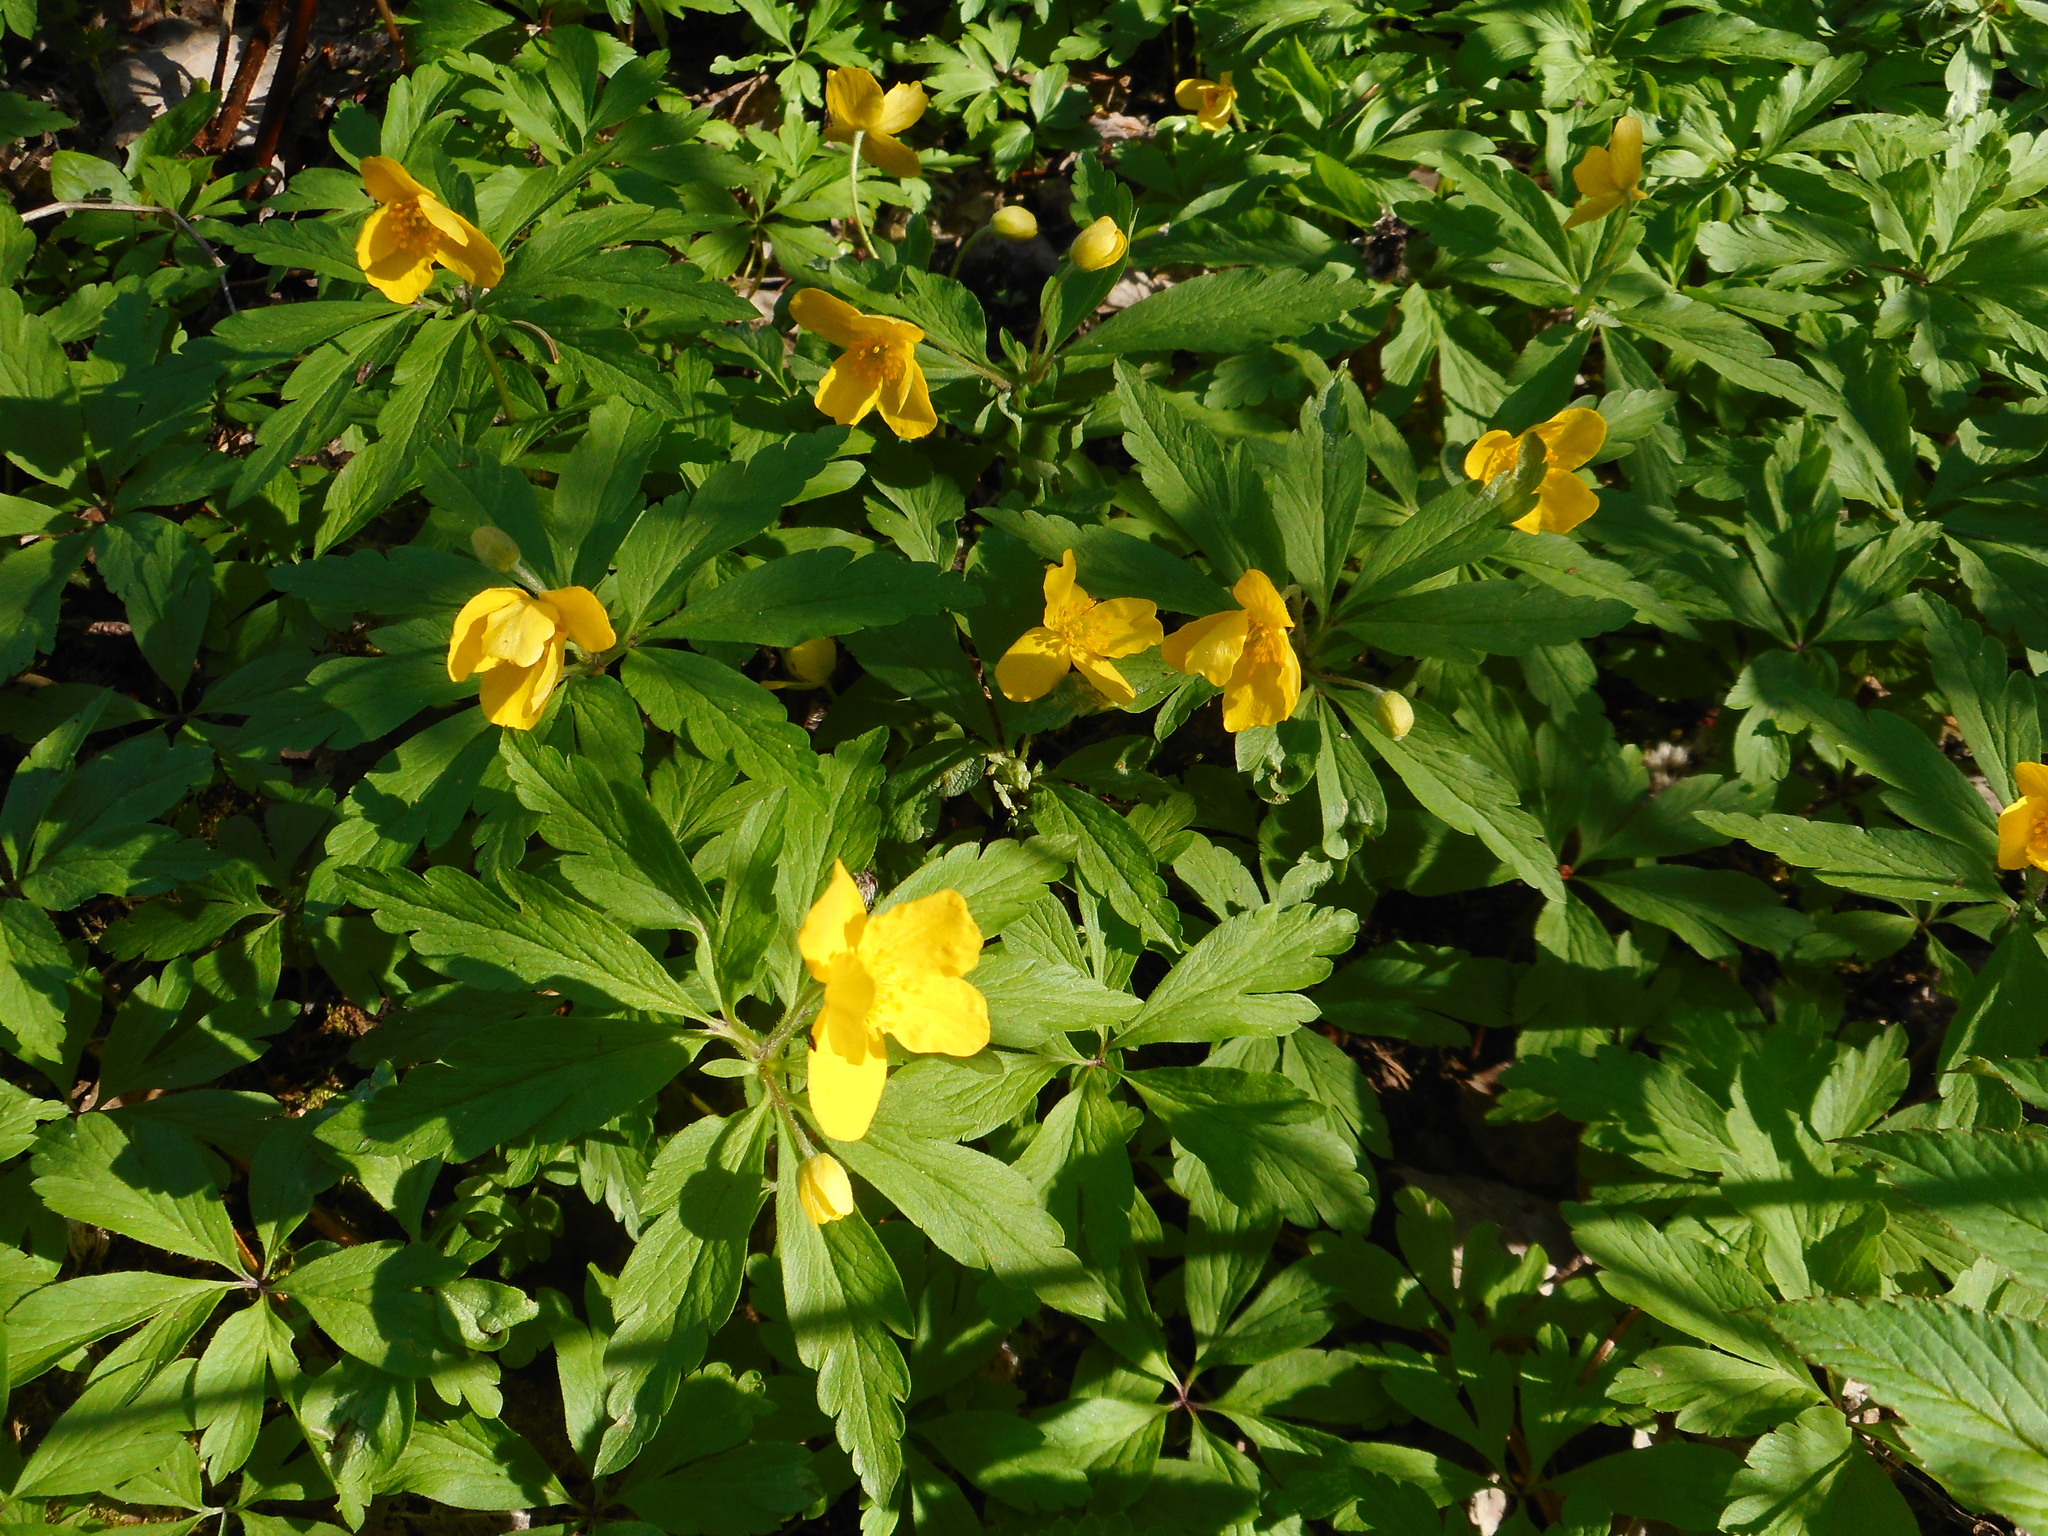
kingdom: Plantae
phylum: Tracheophyta
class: Magnoliopsida
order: Ranunculales
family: Ranunculaceae
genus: Anemone
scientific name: Anemone ranunculoides
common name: Yellow anemone
